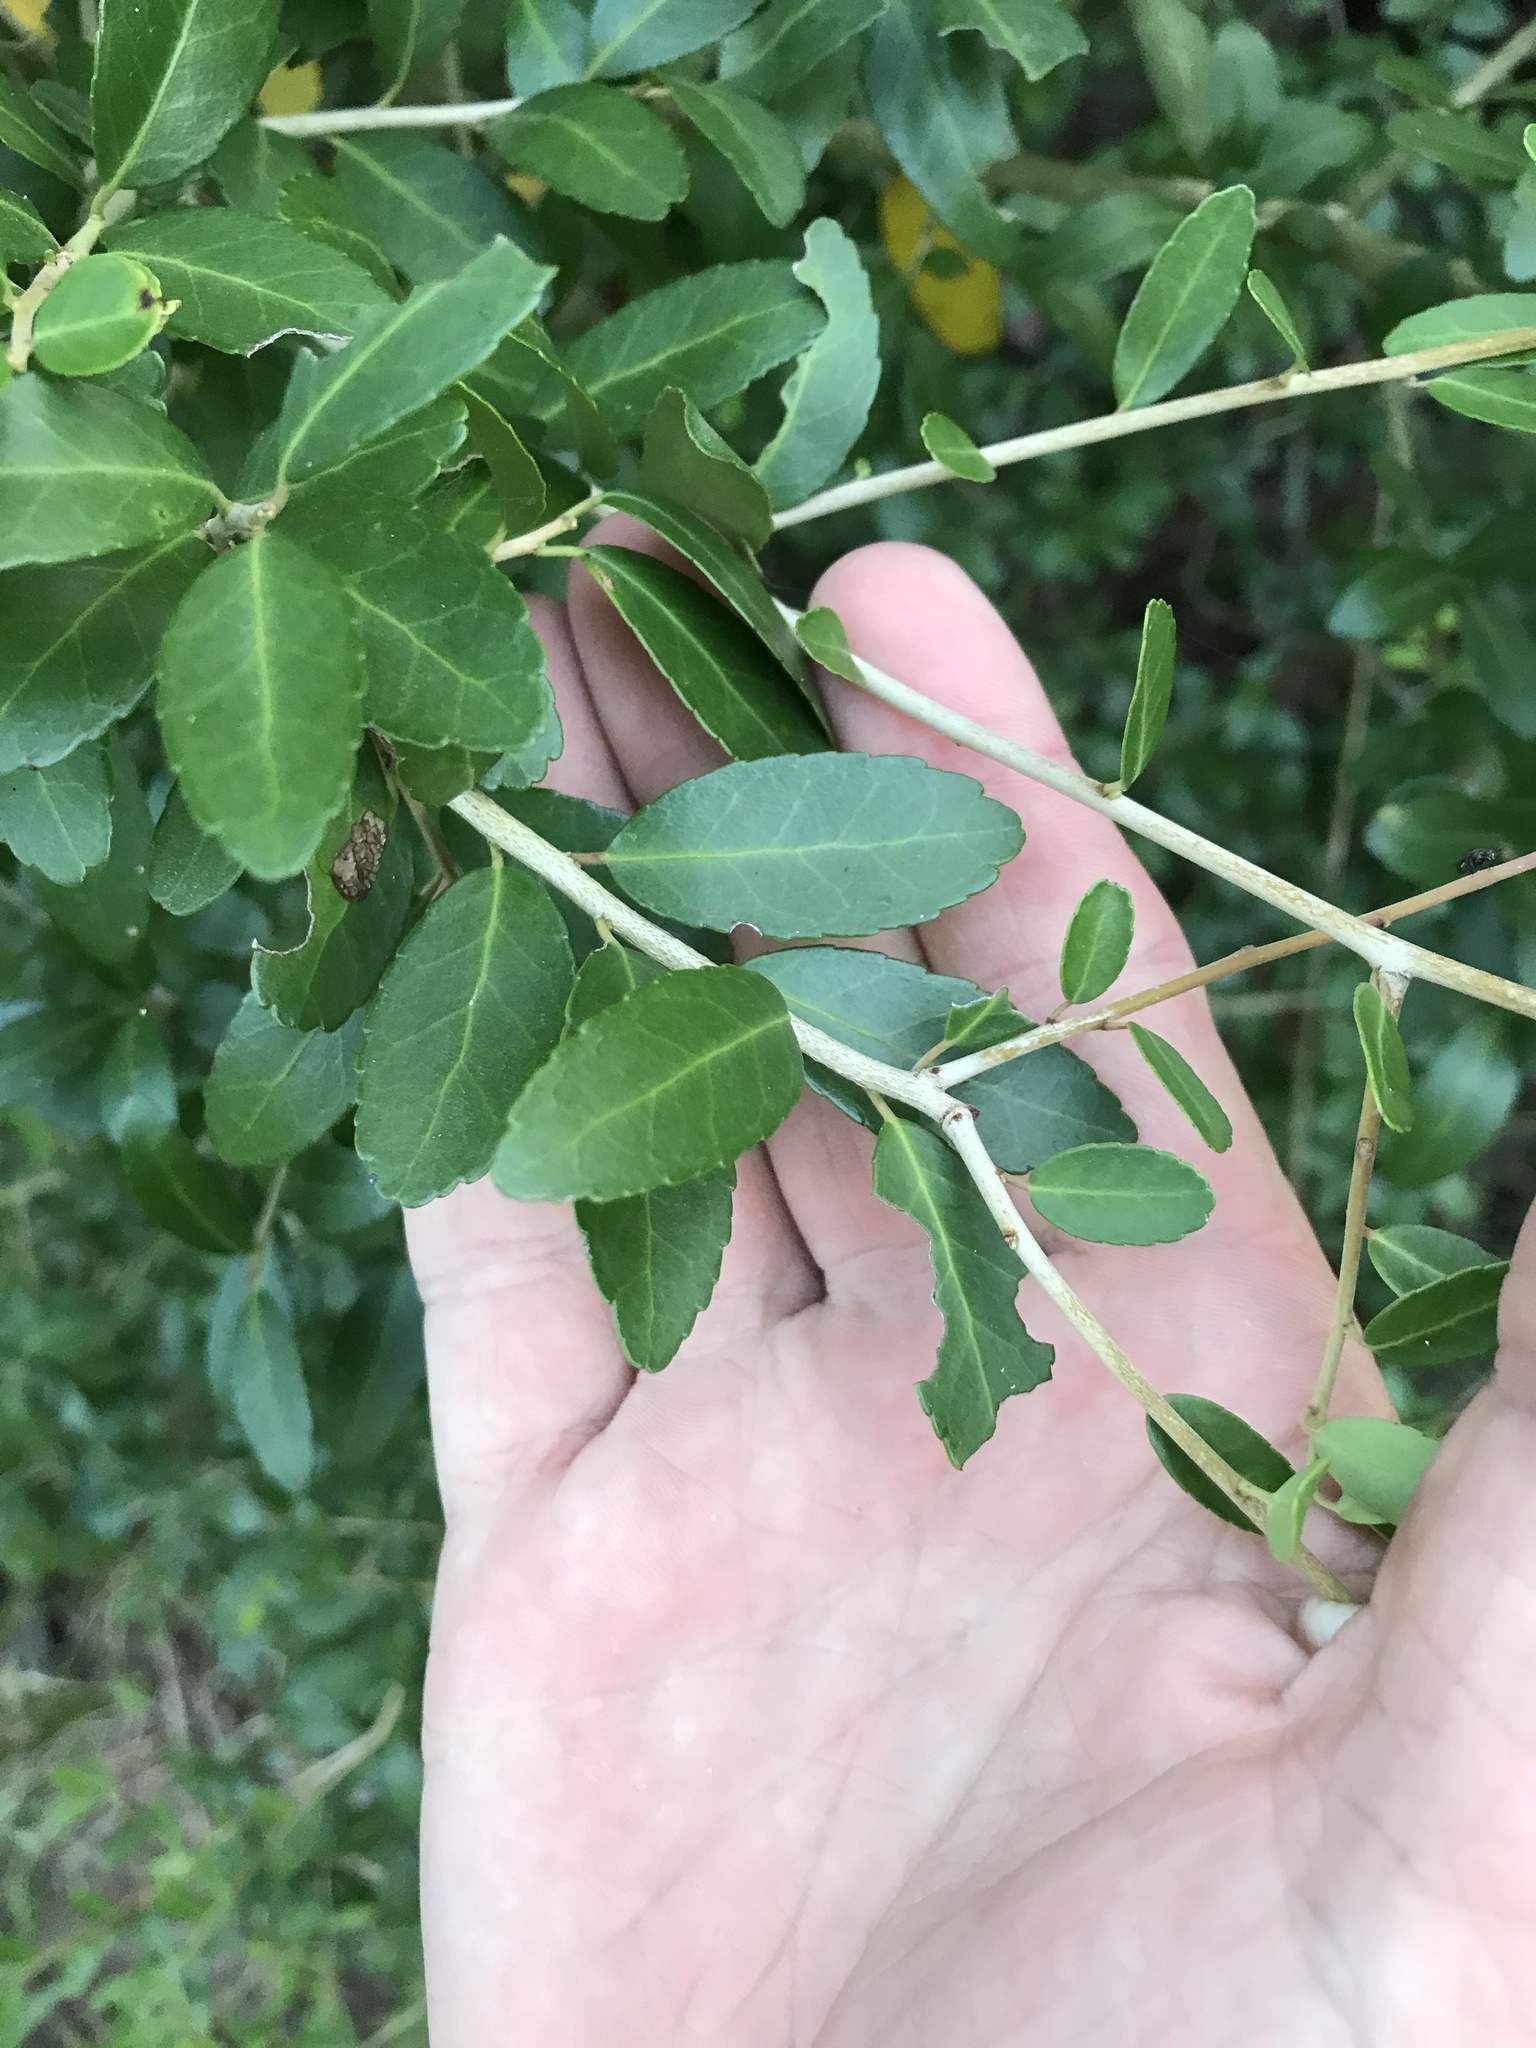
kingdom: Plantae
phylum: Tracheophyta
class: Magnoliopsida
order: Aquifoliales
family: Aquifoliaceae
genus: Ilex
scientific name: Ilex vomitoria
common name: Yaupon holly
